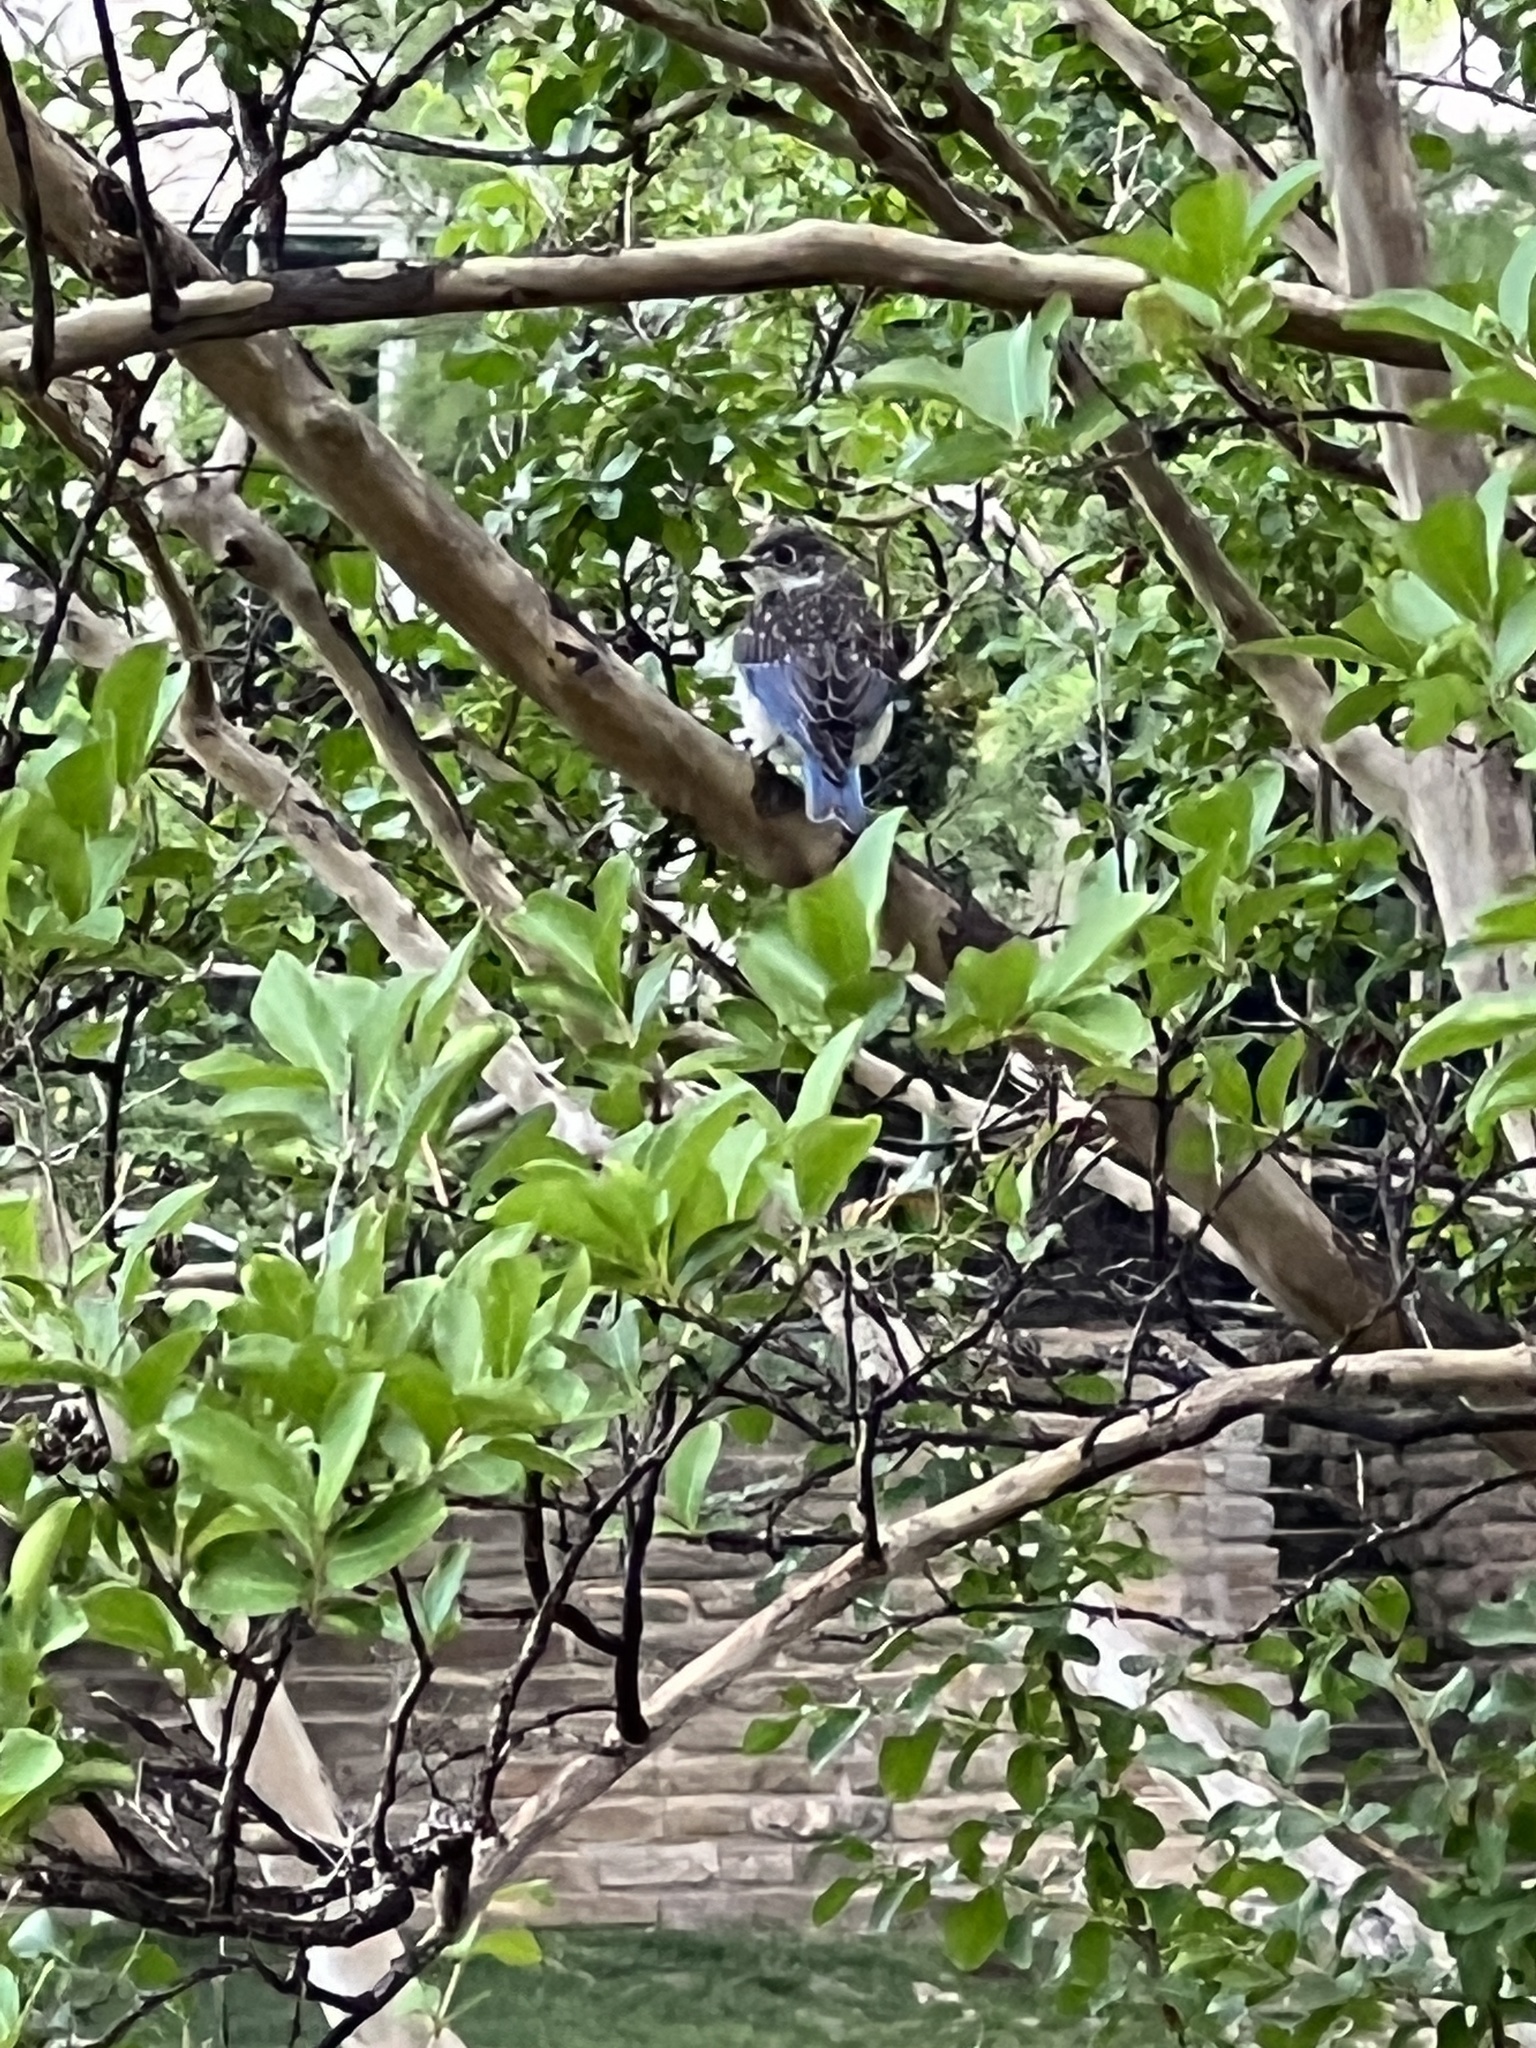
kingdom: Animalia
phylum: Chordata
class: Aves
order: Passeriformes
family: Turdidae
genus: Sialia
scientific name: Sialia sialis
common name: Eastern bluebird
